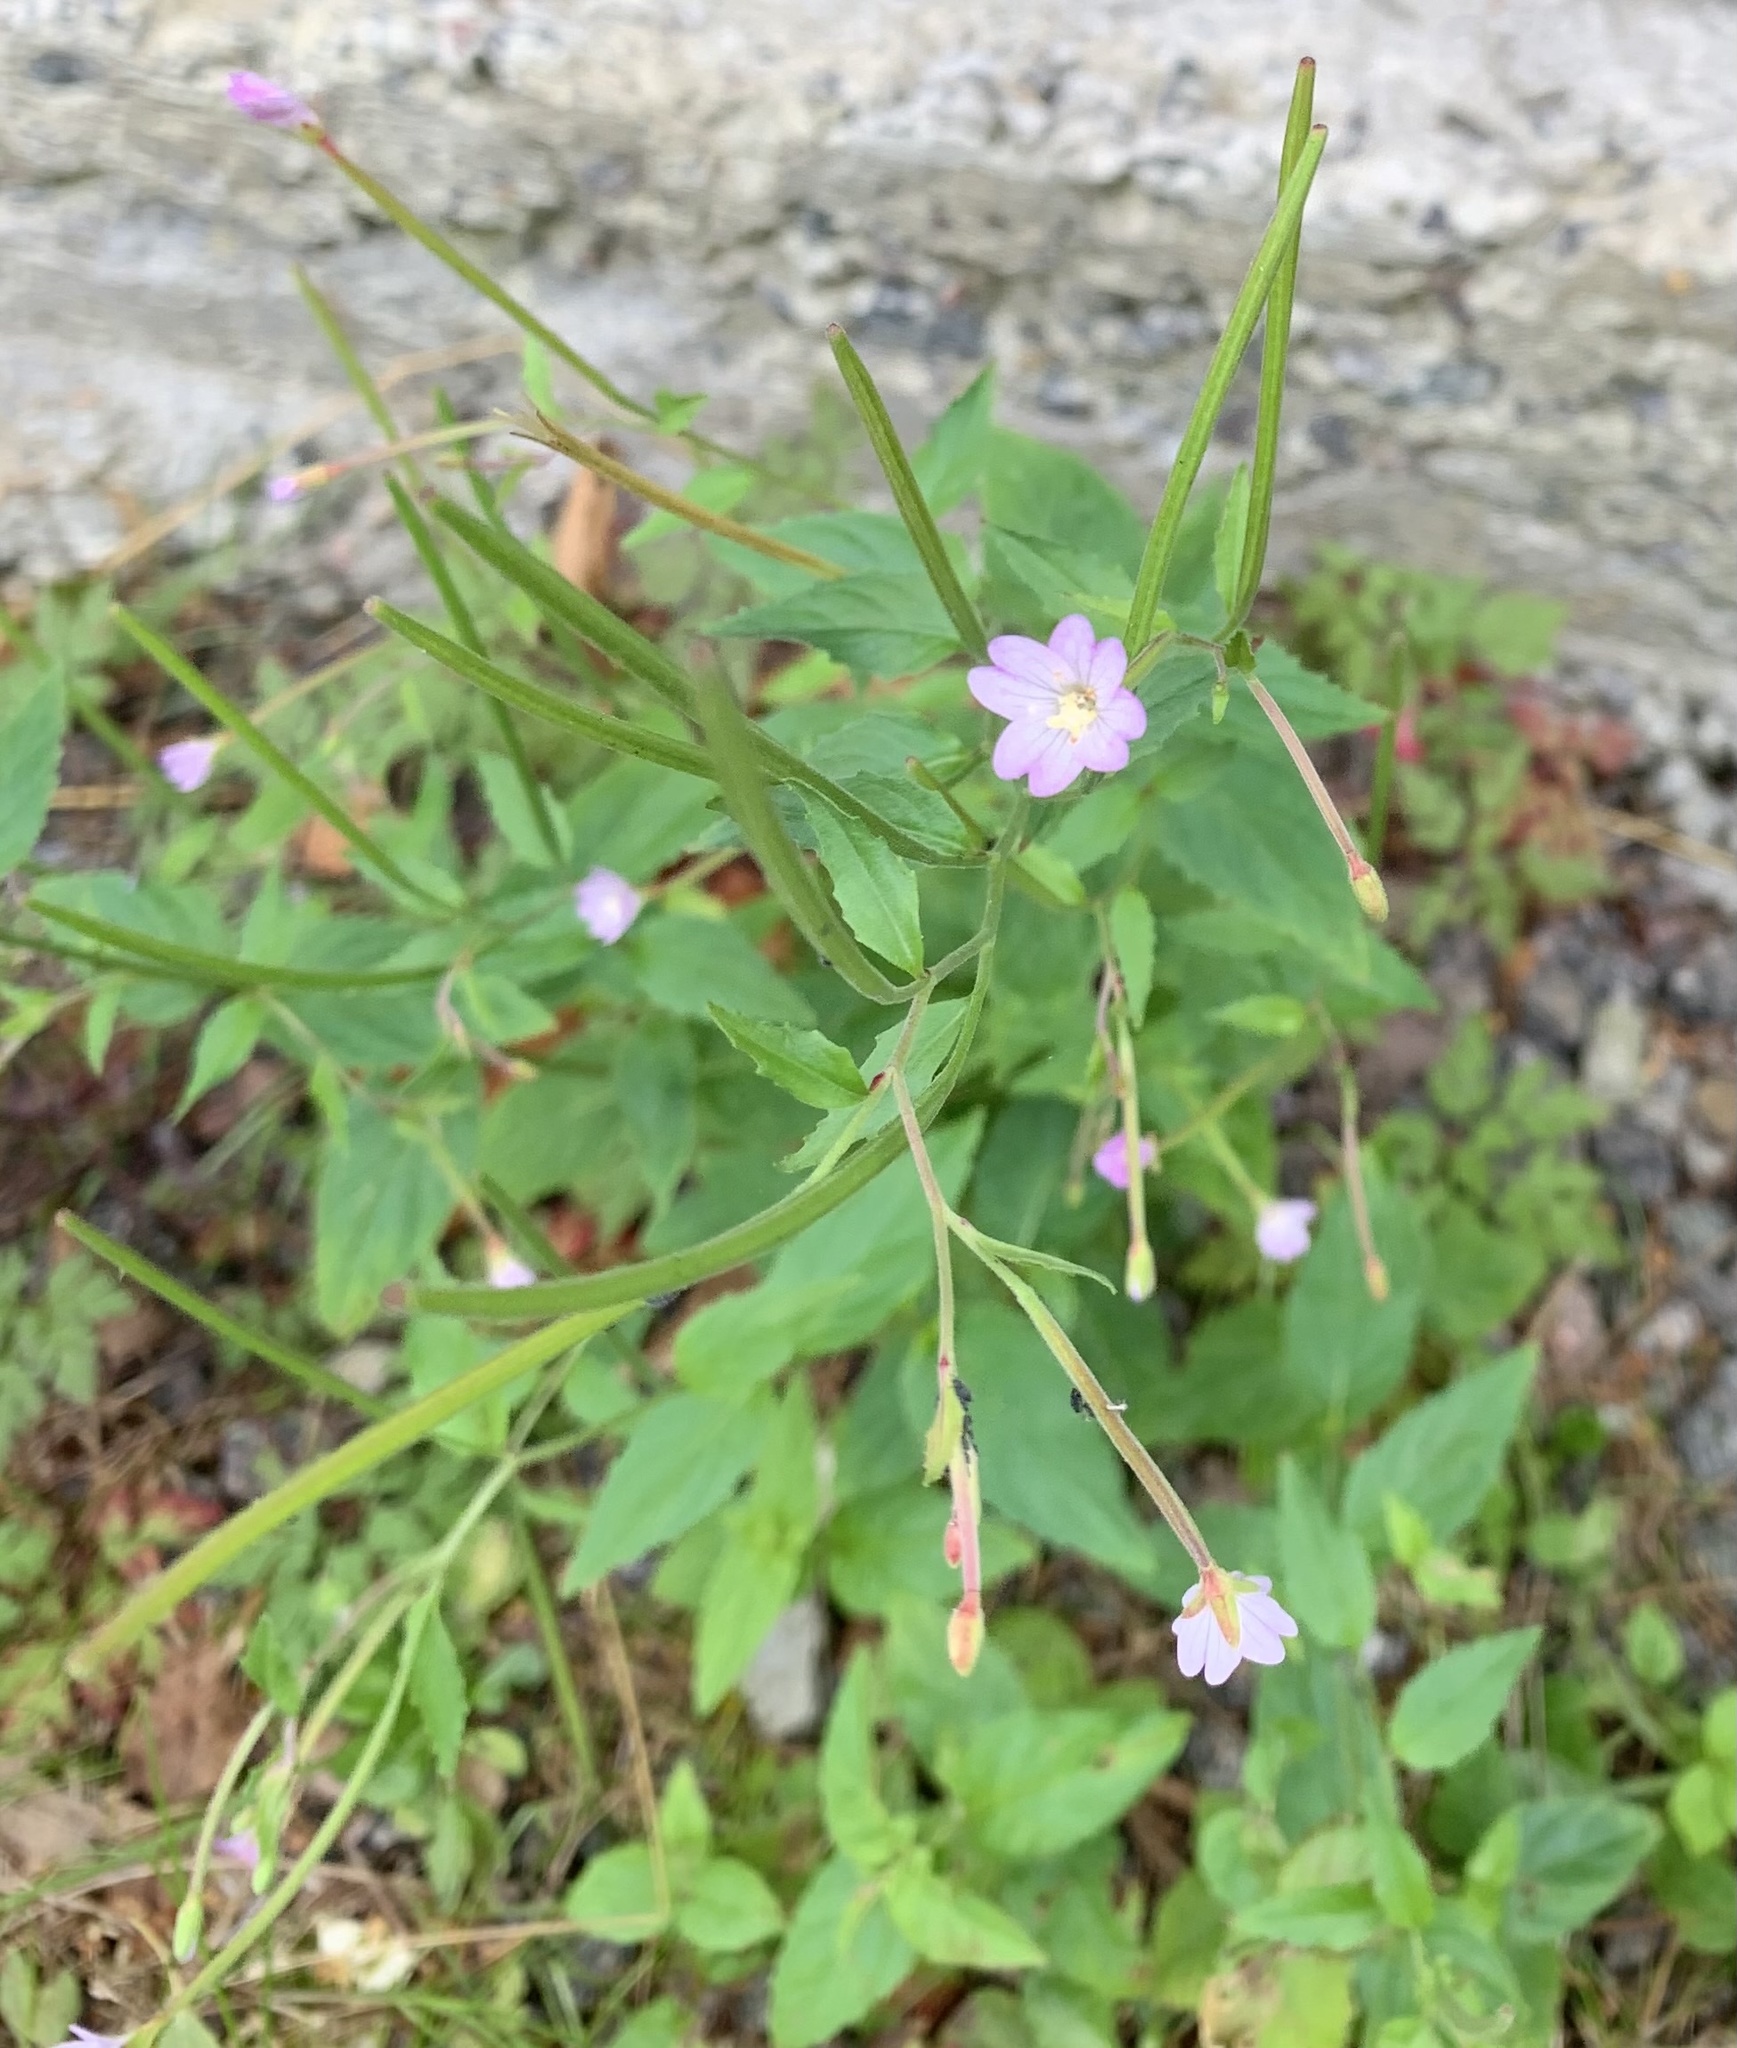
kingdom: Plantae
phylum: Tracheophyta
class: Magnoliopsida
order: Myrtales
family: Onagraceae
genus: Epilobium
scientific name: Epilobium montanum
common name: Broad-leaved willowherb
